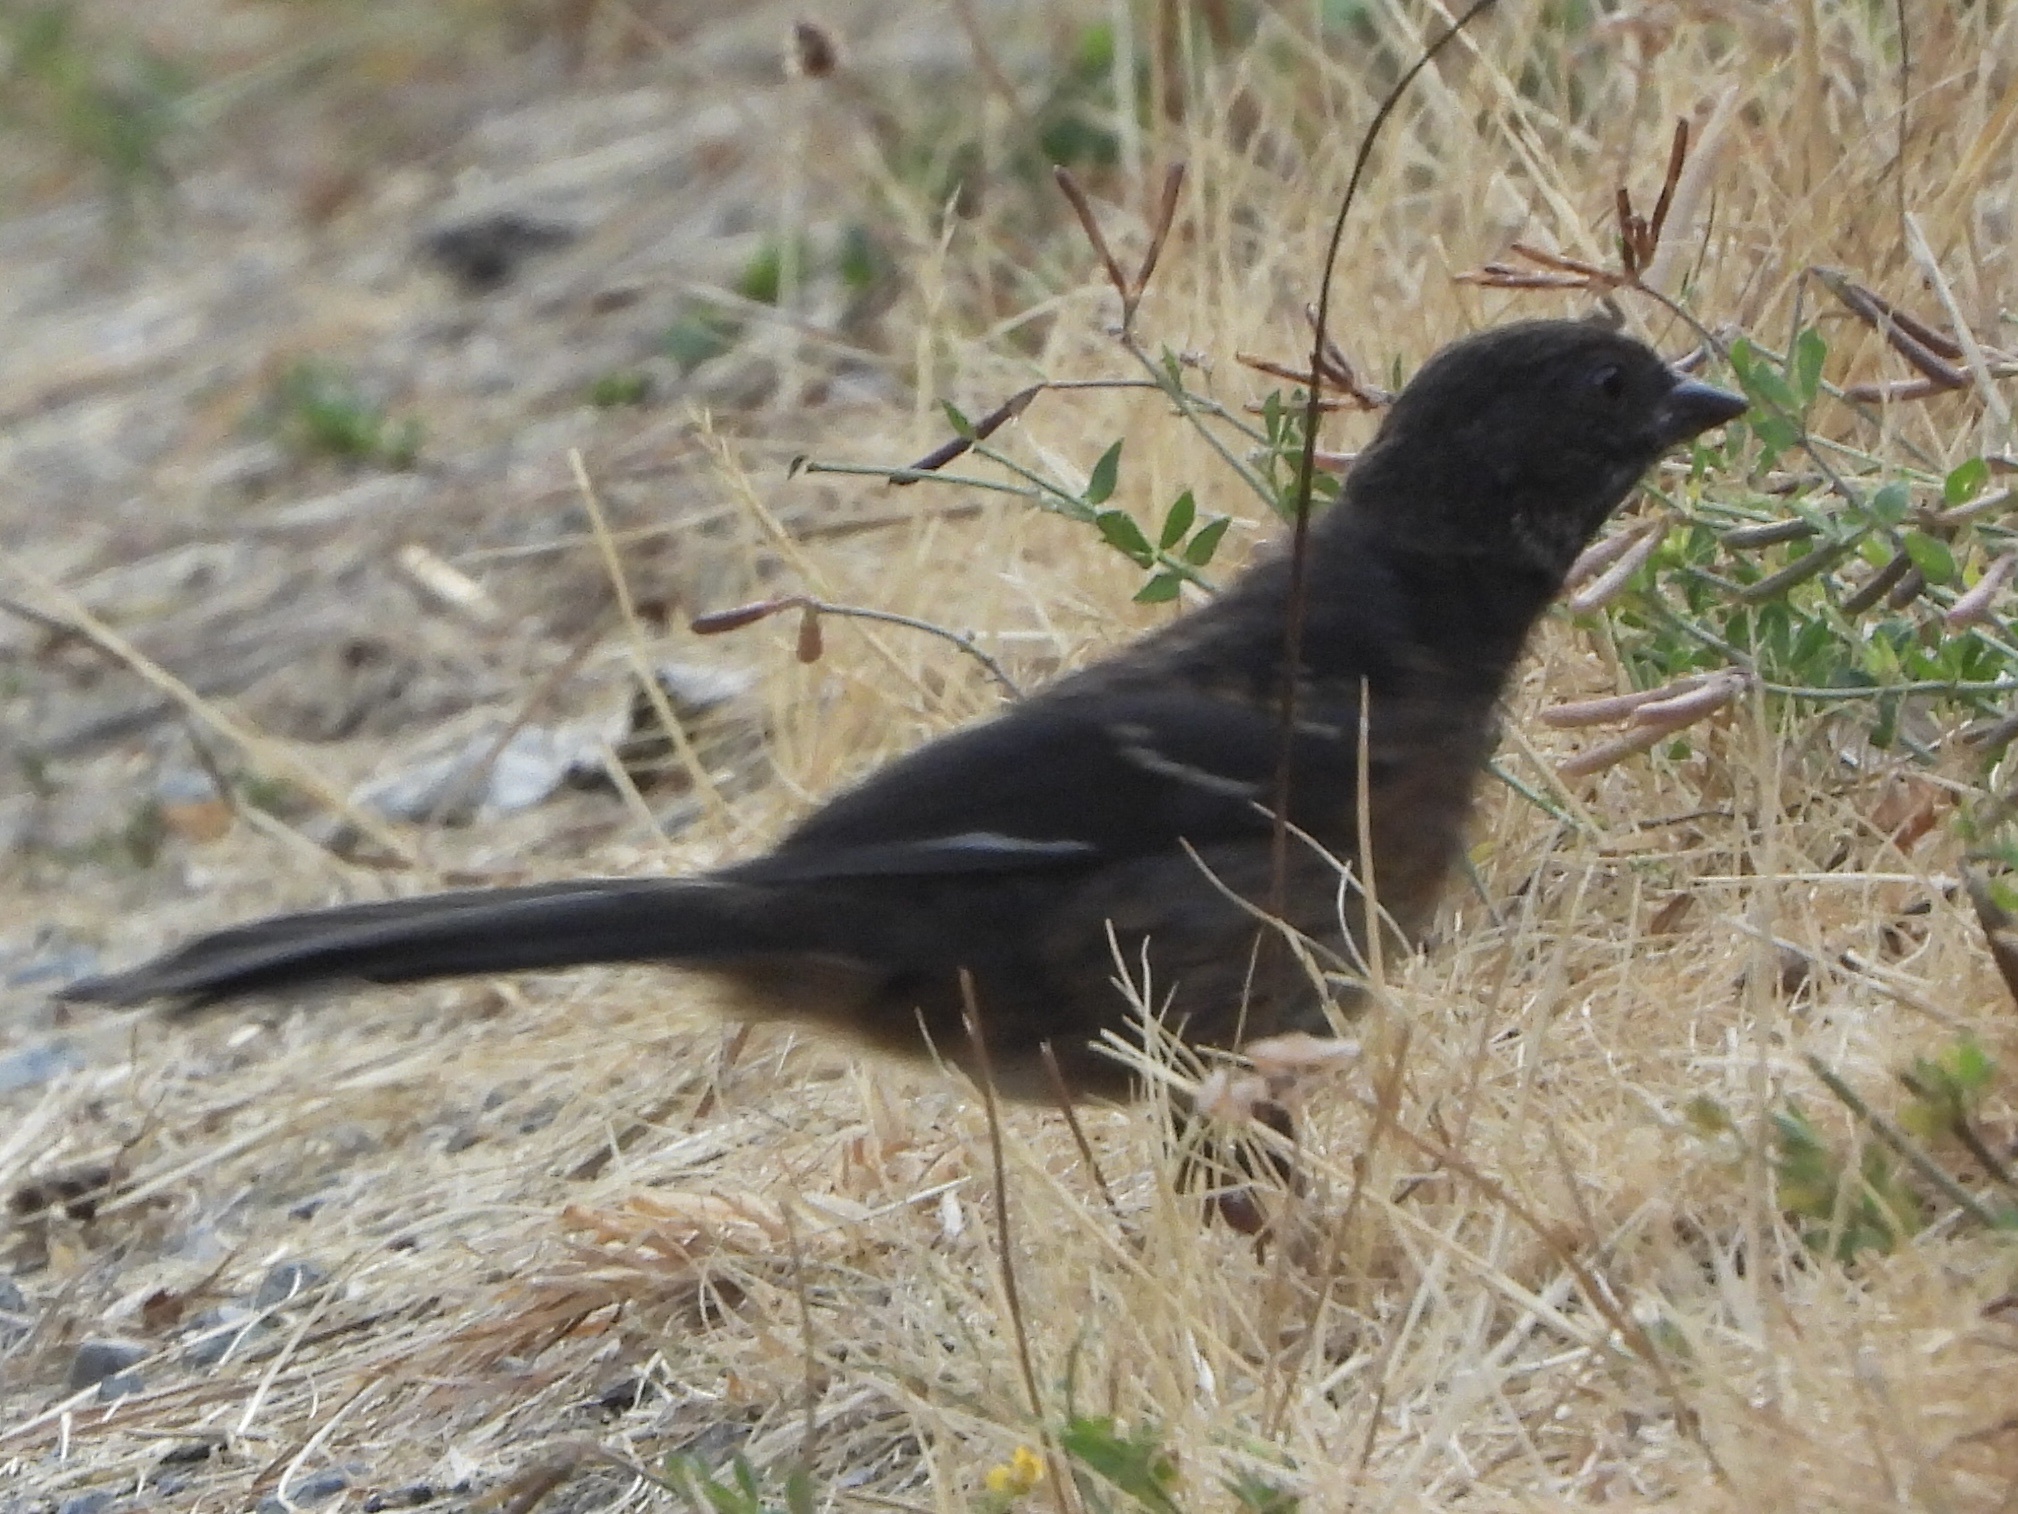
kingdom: Animalia
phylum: Chordata
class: Aves
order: Passeriformes
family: Passerellidae
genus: Pipilo
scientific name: Pipilo maculatus
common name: Spotted towhee
